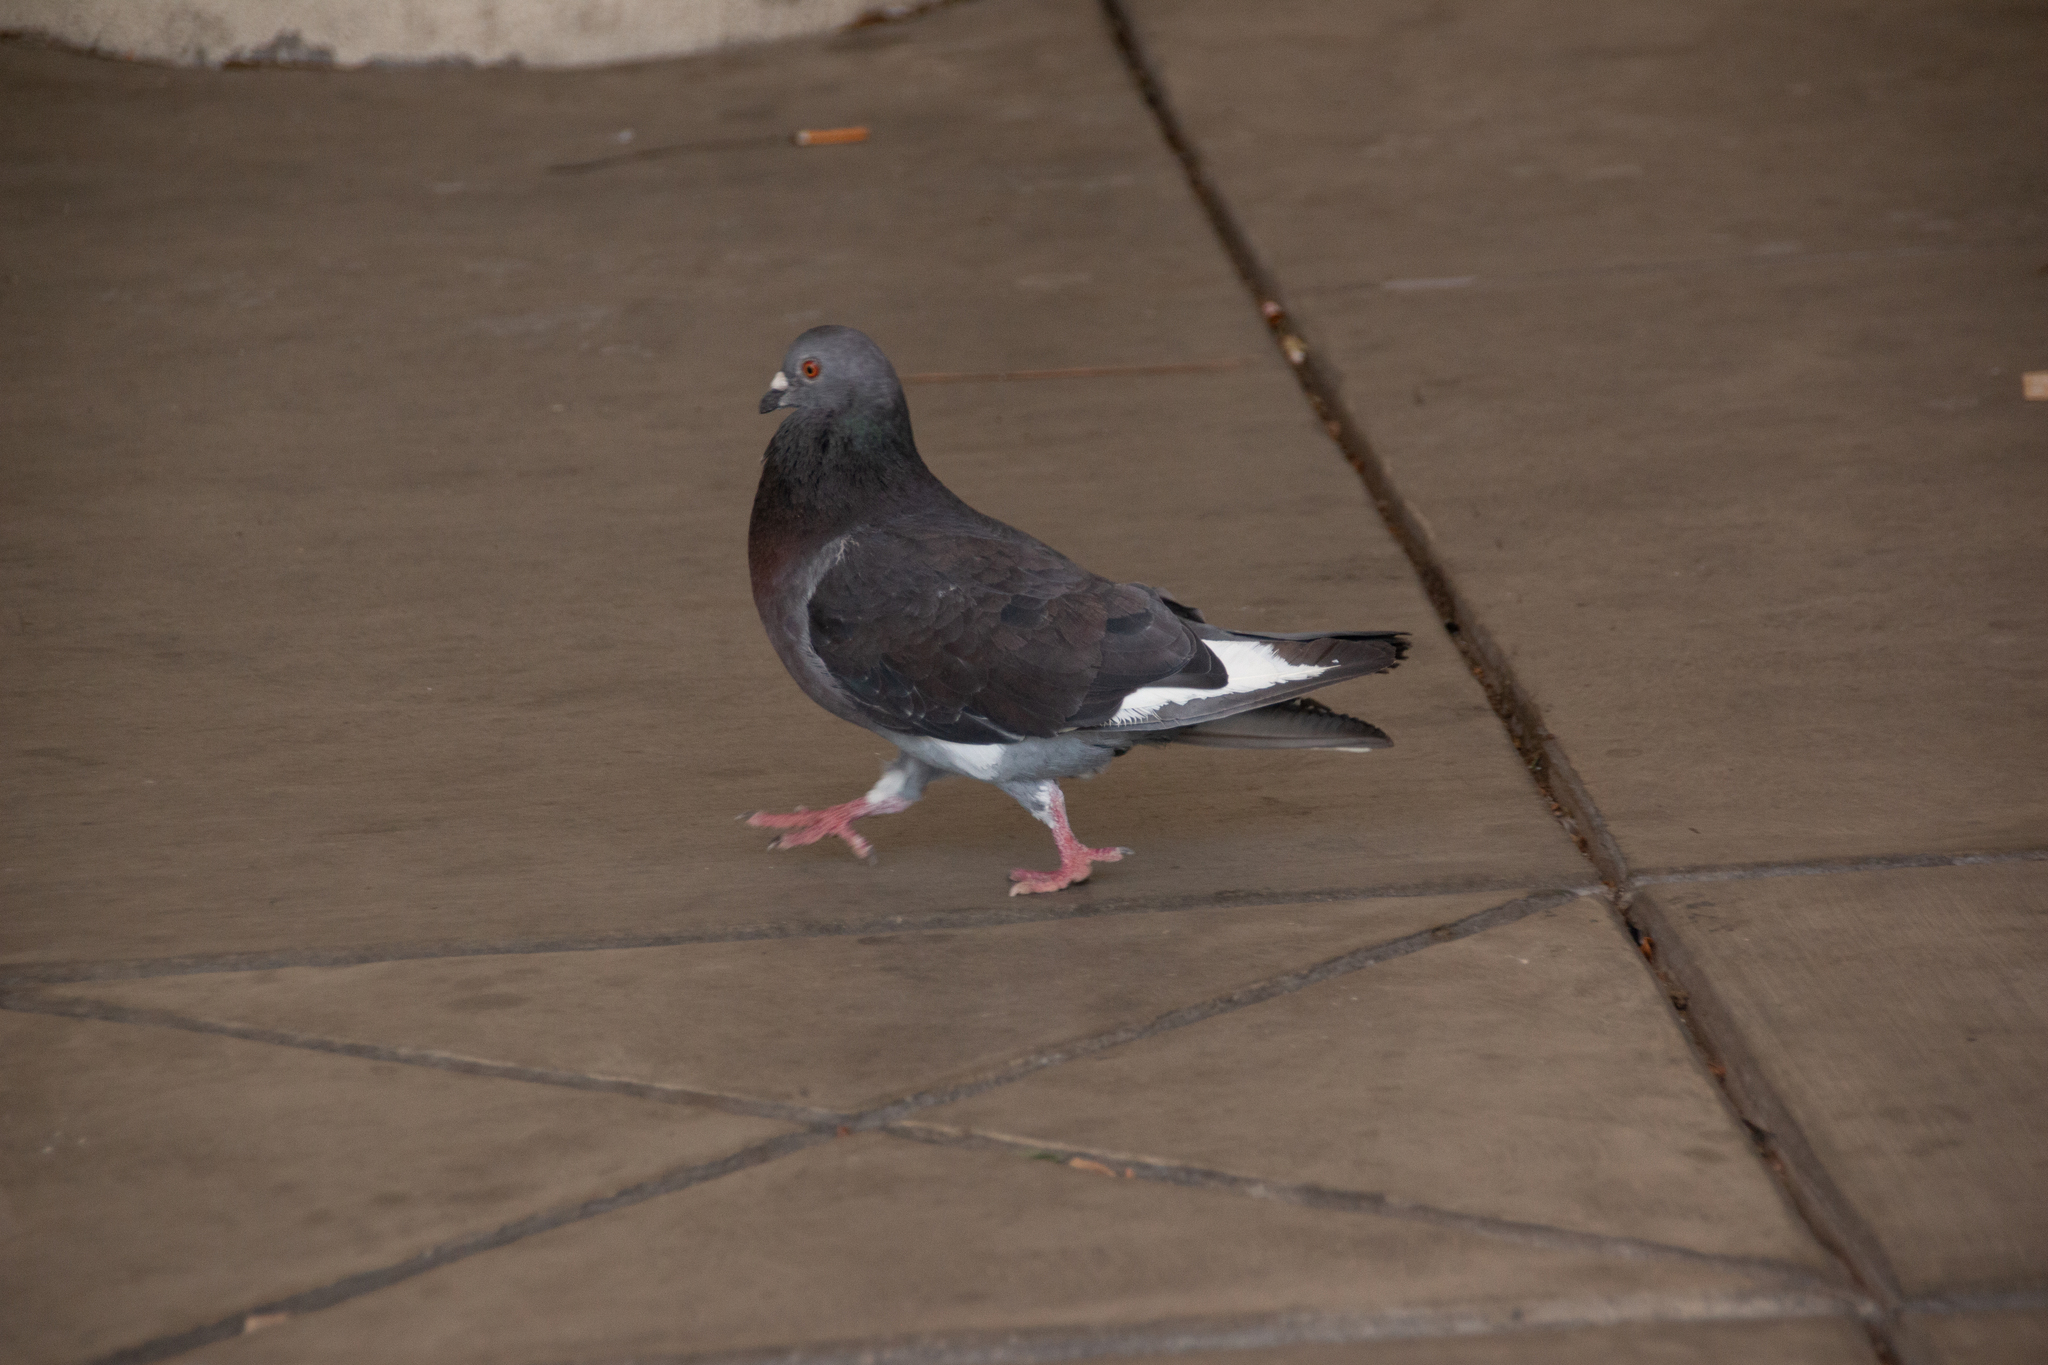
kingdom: Animalia
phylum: Chordata
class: Aves
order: Columbiformes
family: Columbidae
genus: Columba
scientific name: Columba livia
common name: Rock pigeon
